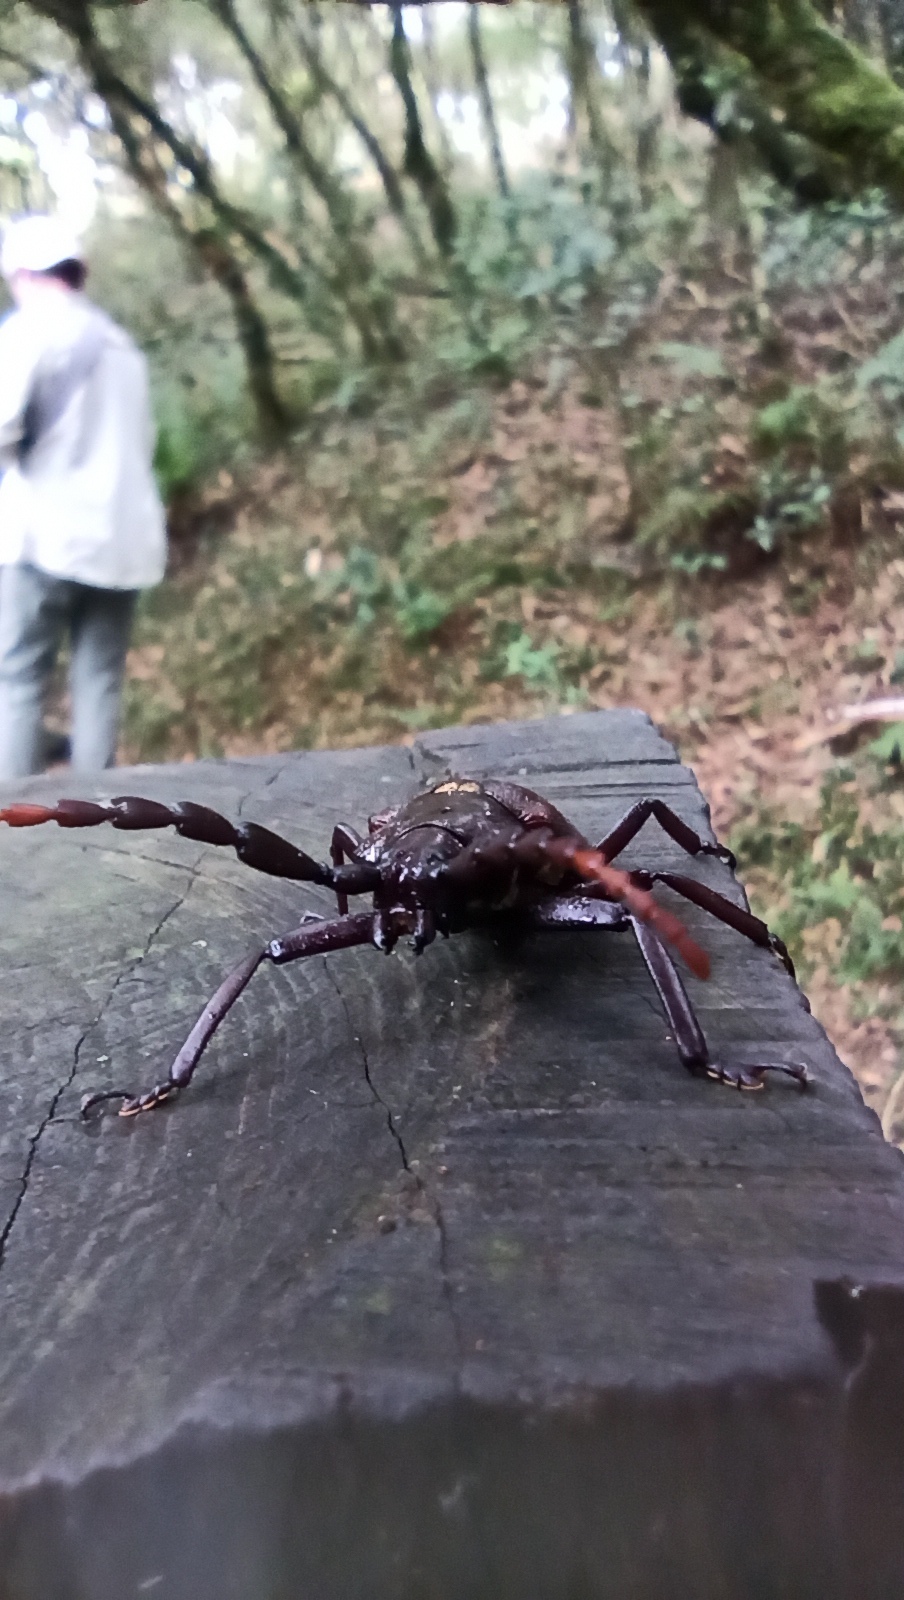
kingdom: Animalia
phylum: Arthropoda
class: Insecta
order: Coleoptera
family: Cerambycidae
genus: Praemallaspis
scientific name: Praemallaspis leucaspis
